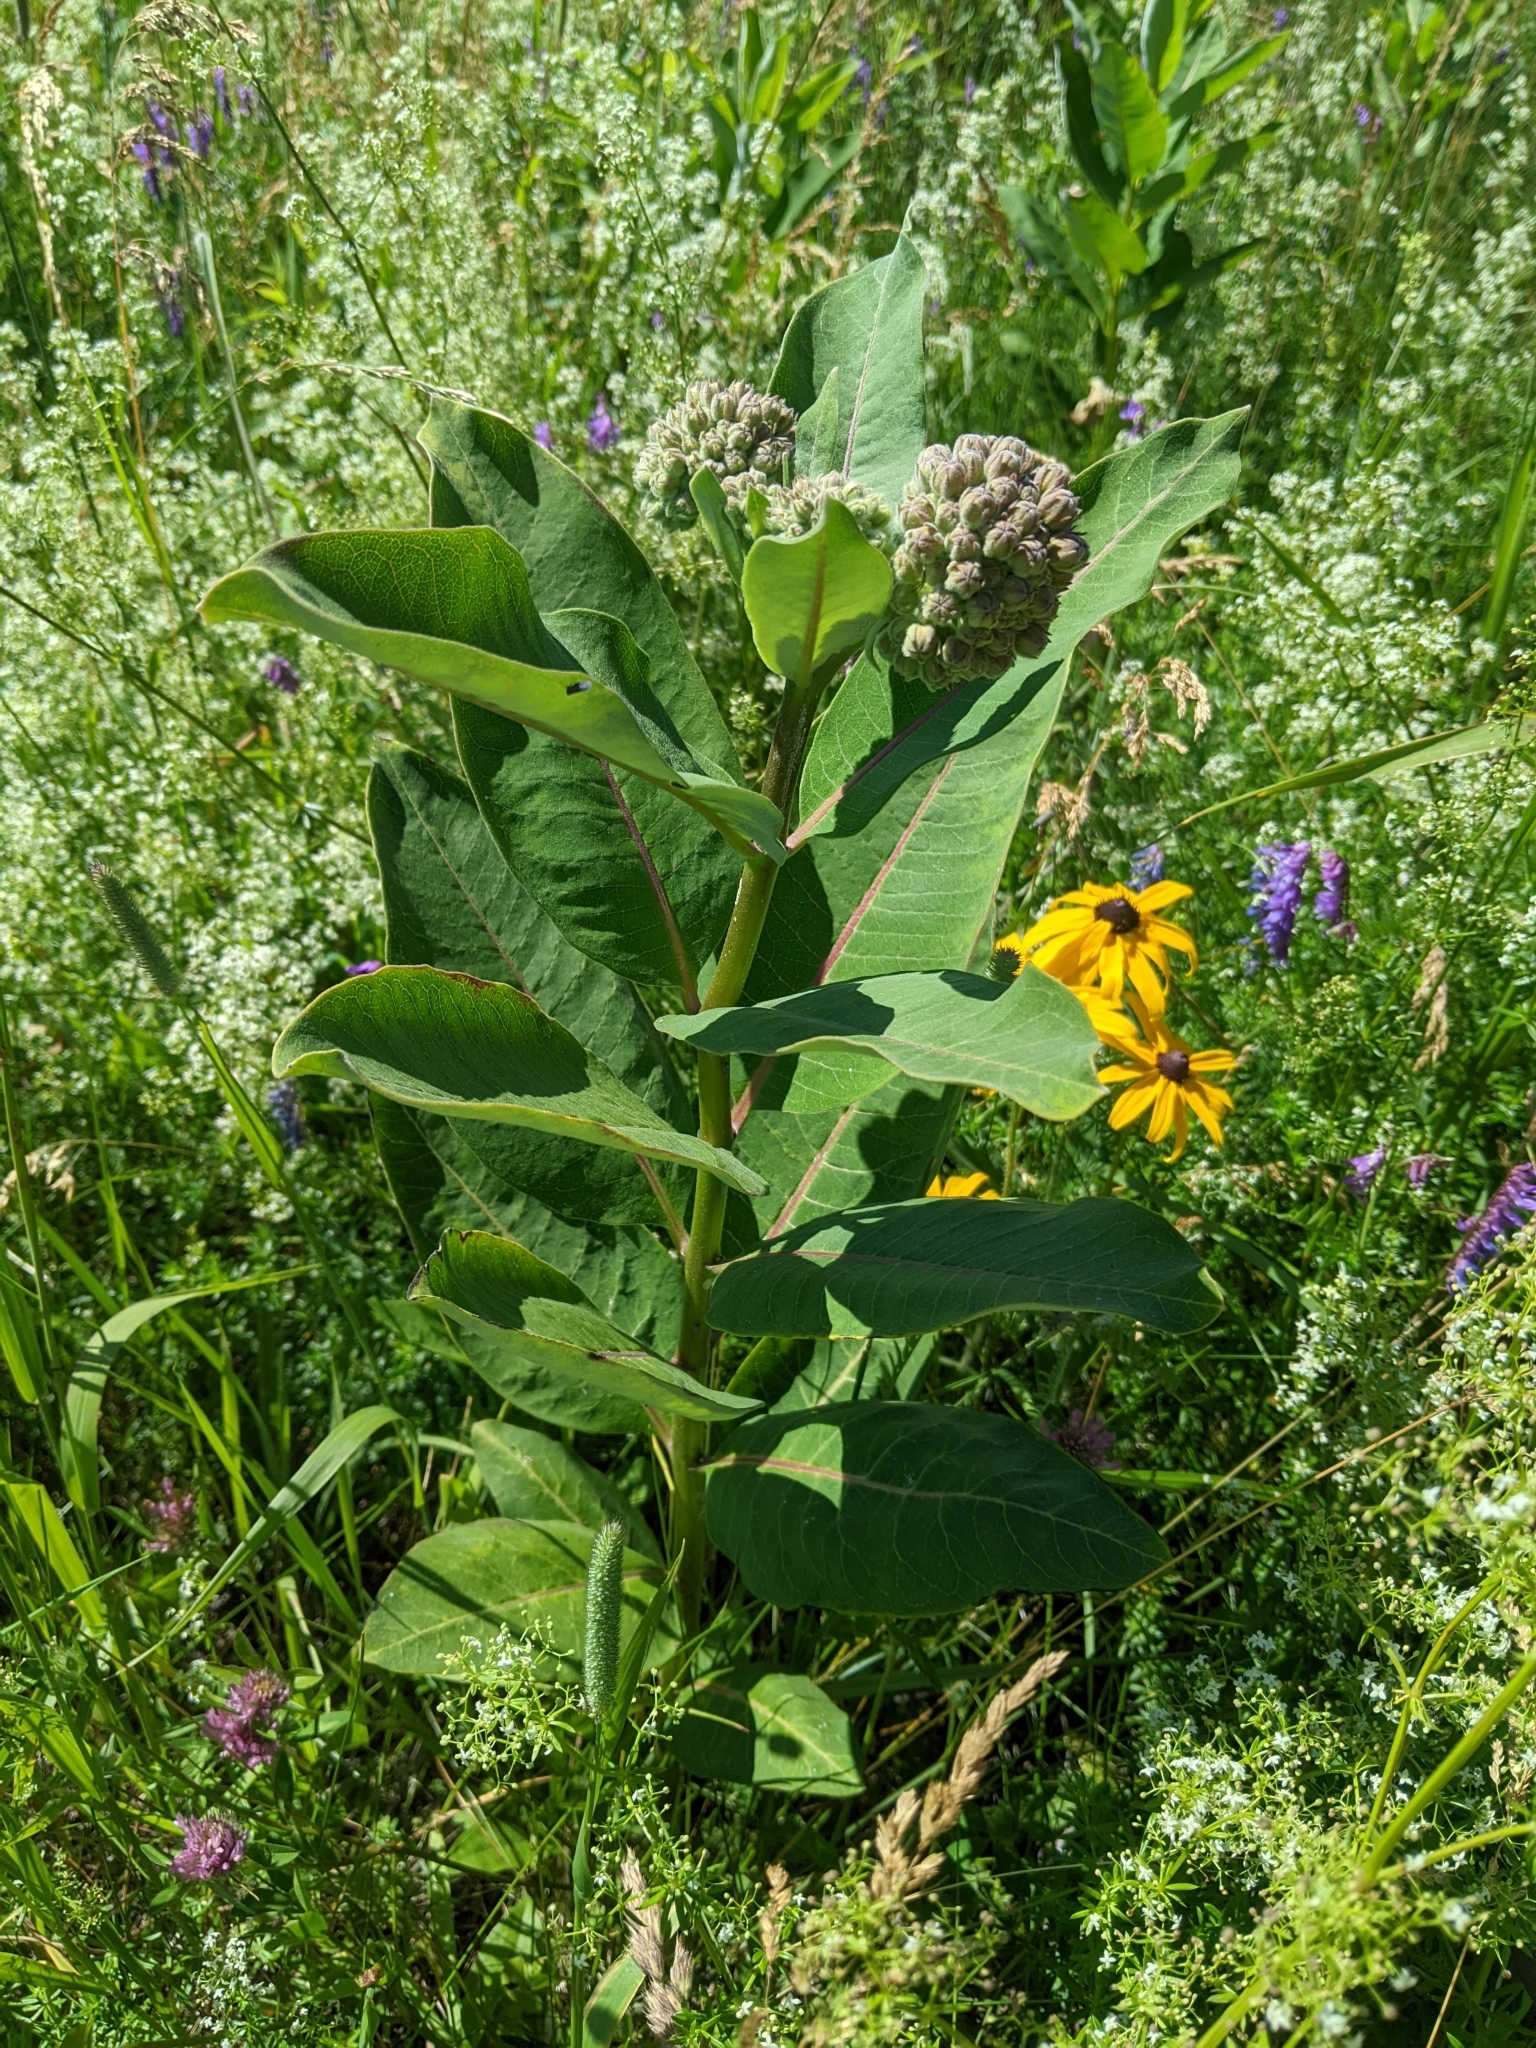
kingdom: Plantae
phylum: Tracheophyta
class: Magnoliopsida
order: Gentianales
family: Apocynaceae
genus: Asclepias
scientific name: Asclepias syriaca
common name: Common milkweed
